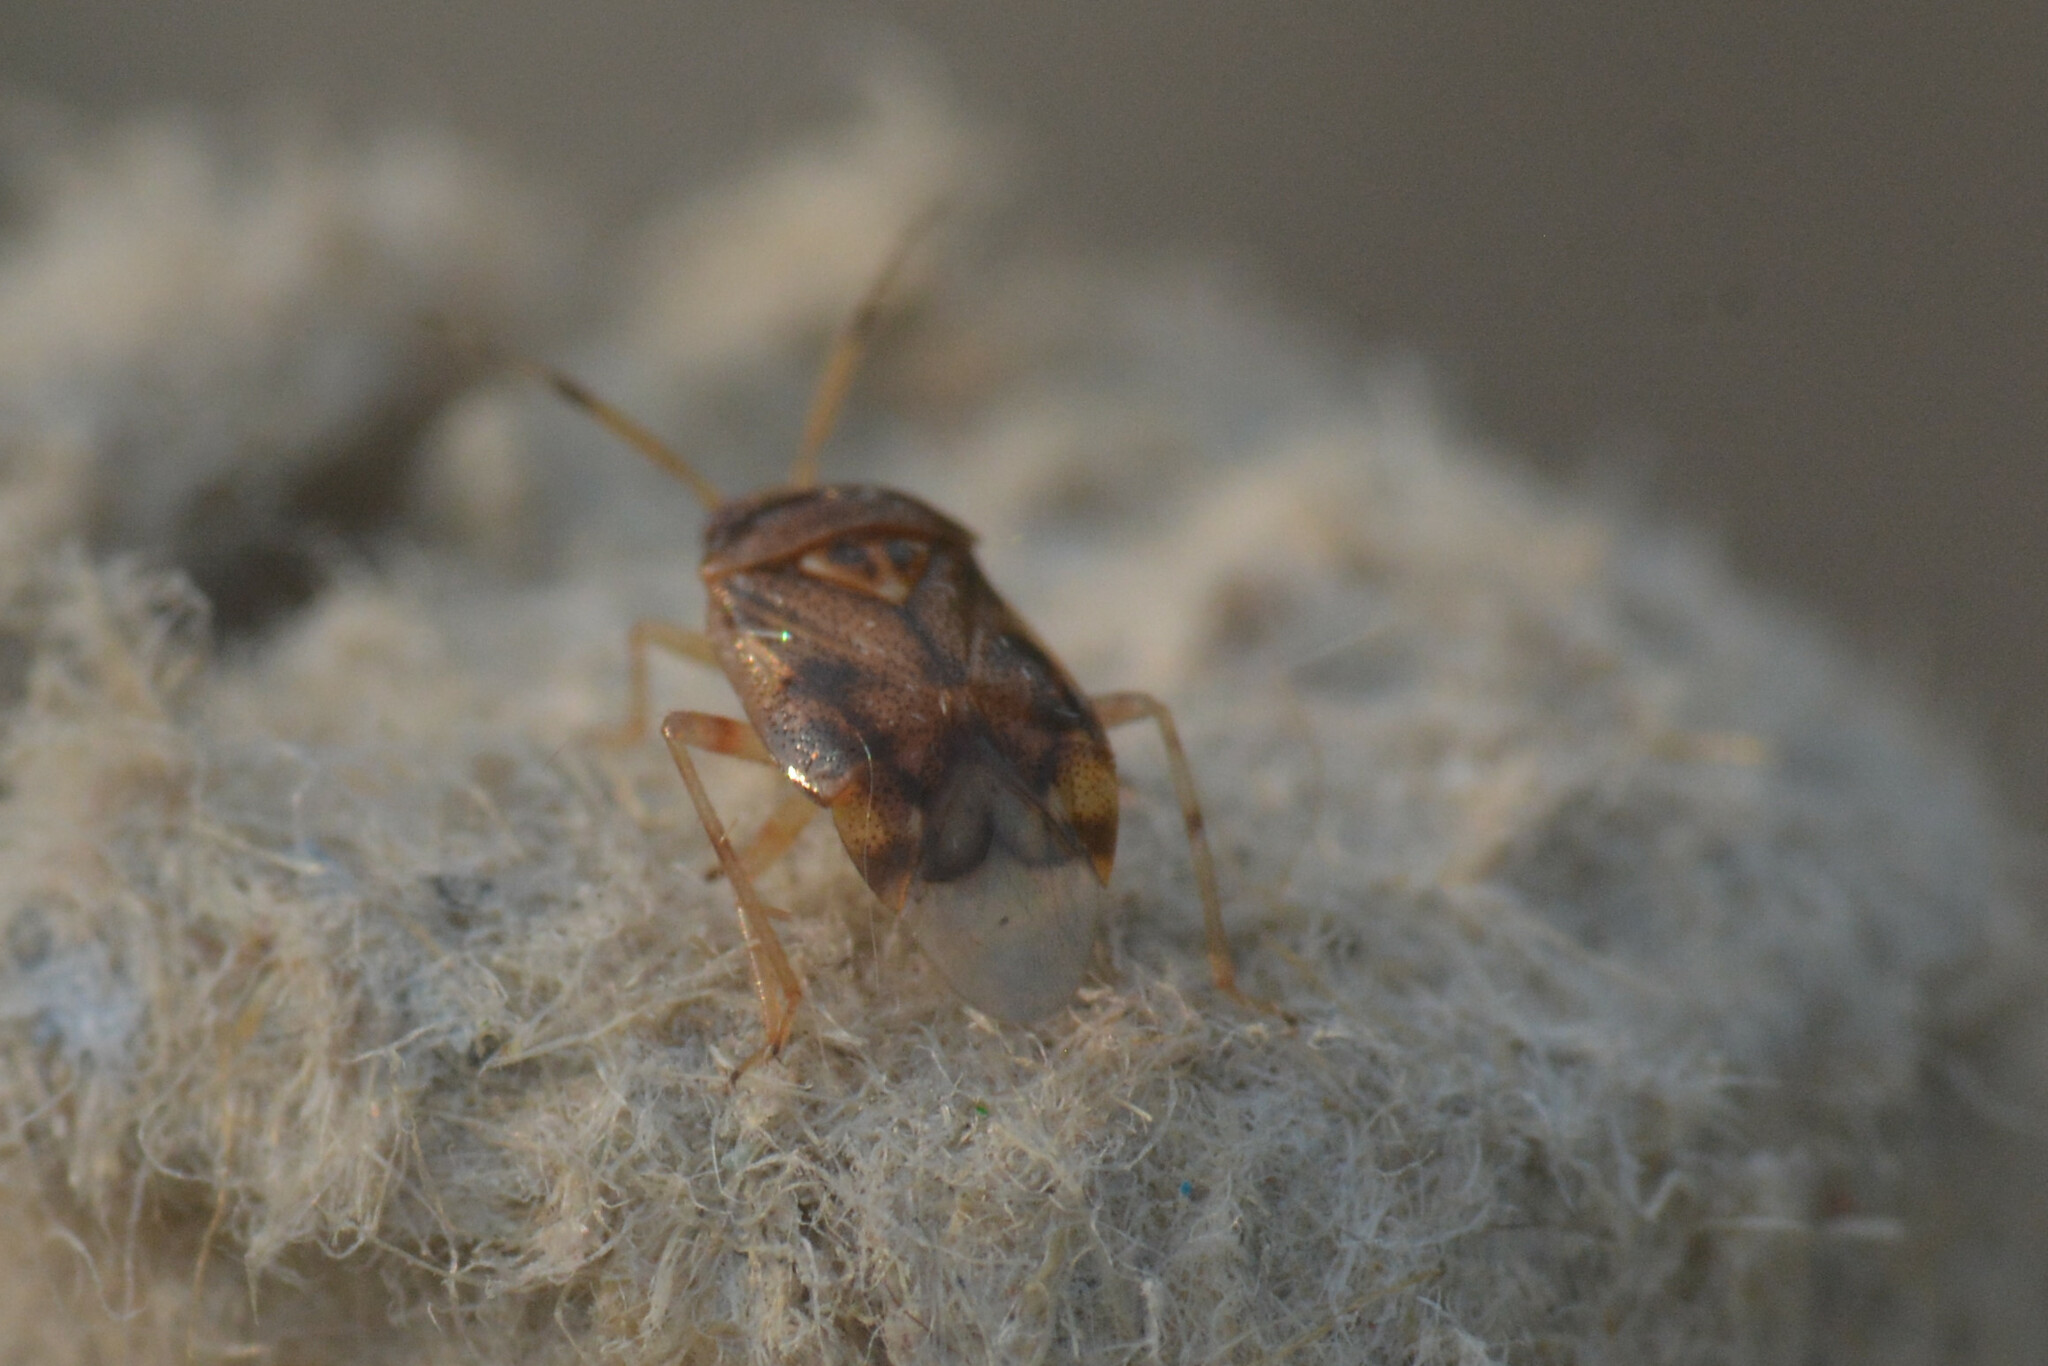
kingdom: Animalia
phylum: Arthropoda
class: Insecta
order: Hemiptera
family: Miridae
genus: Deraeocoris
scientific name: Deraeocoris lutescens
